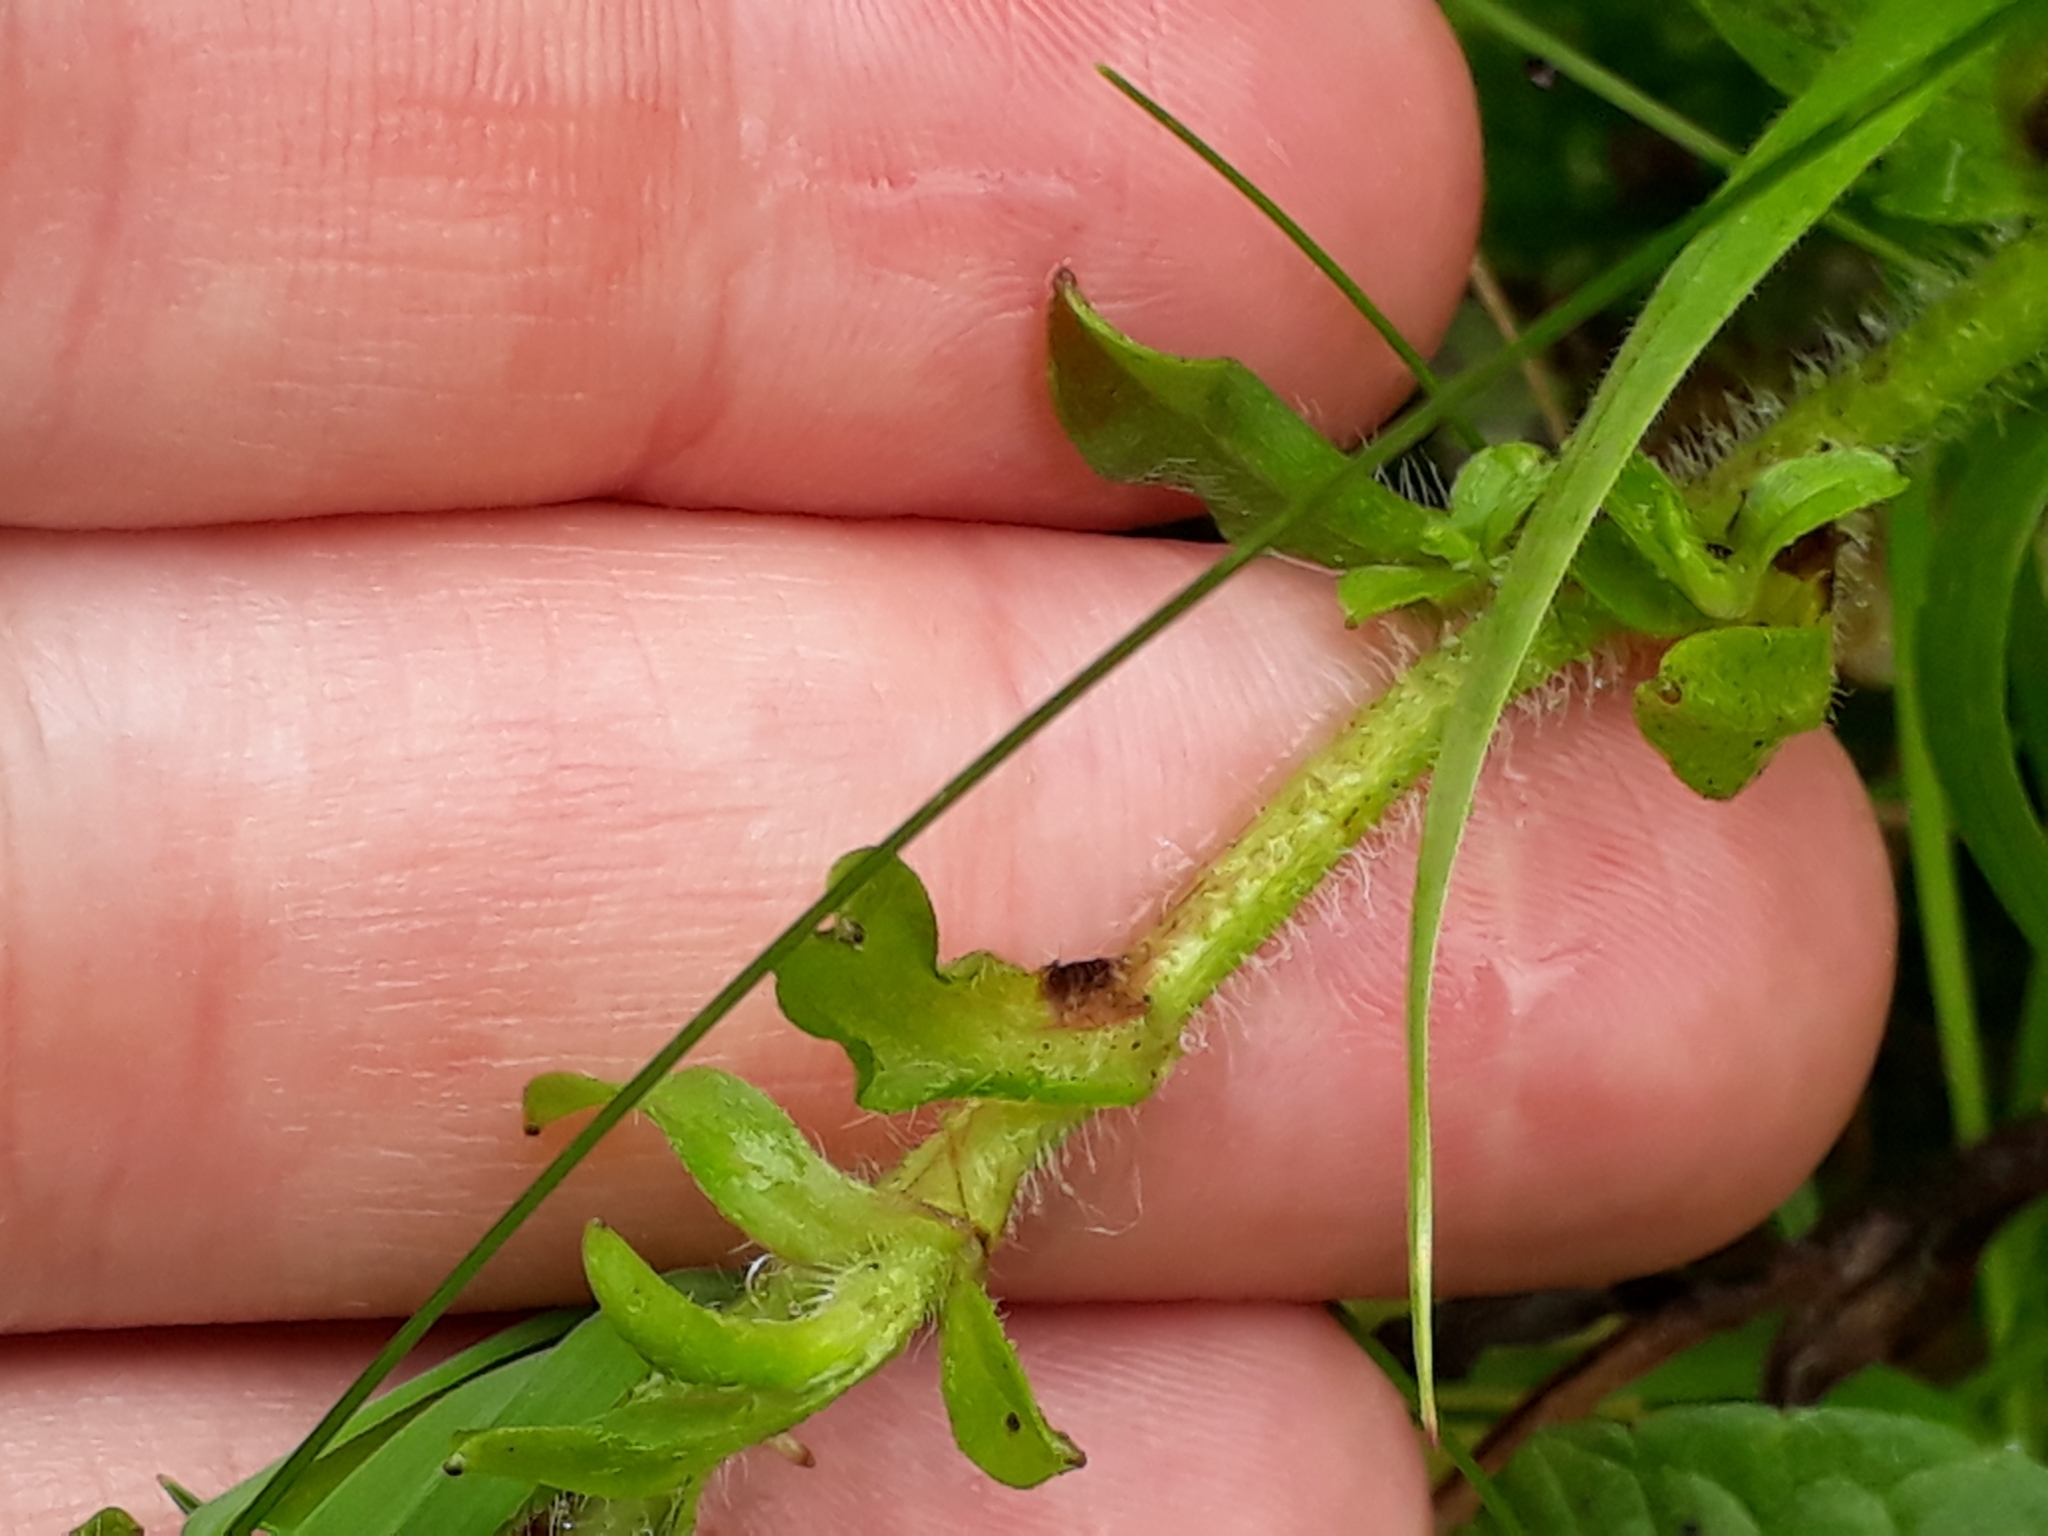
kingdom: Plantae
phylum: Tracheophyta
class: Magnoliopsida
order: Boraginales
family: Boraginaceae
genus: Myosotis
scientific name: Myosotis secunda
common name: Creeping forget-me-not
